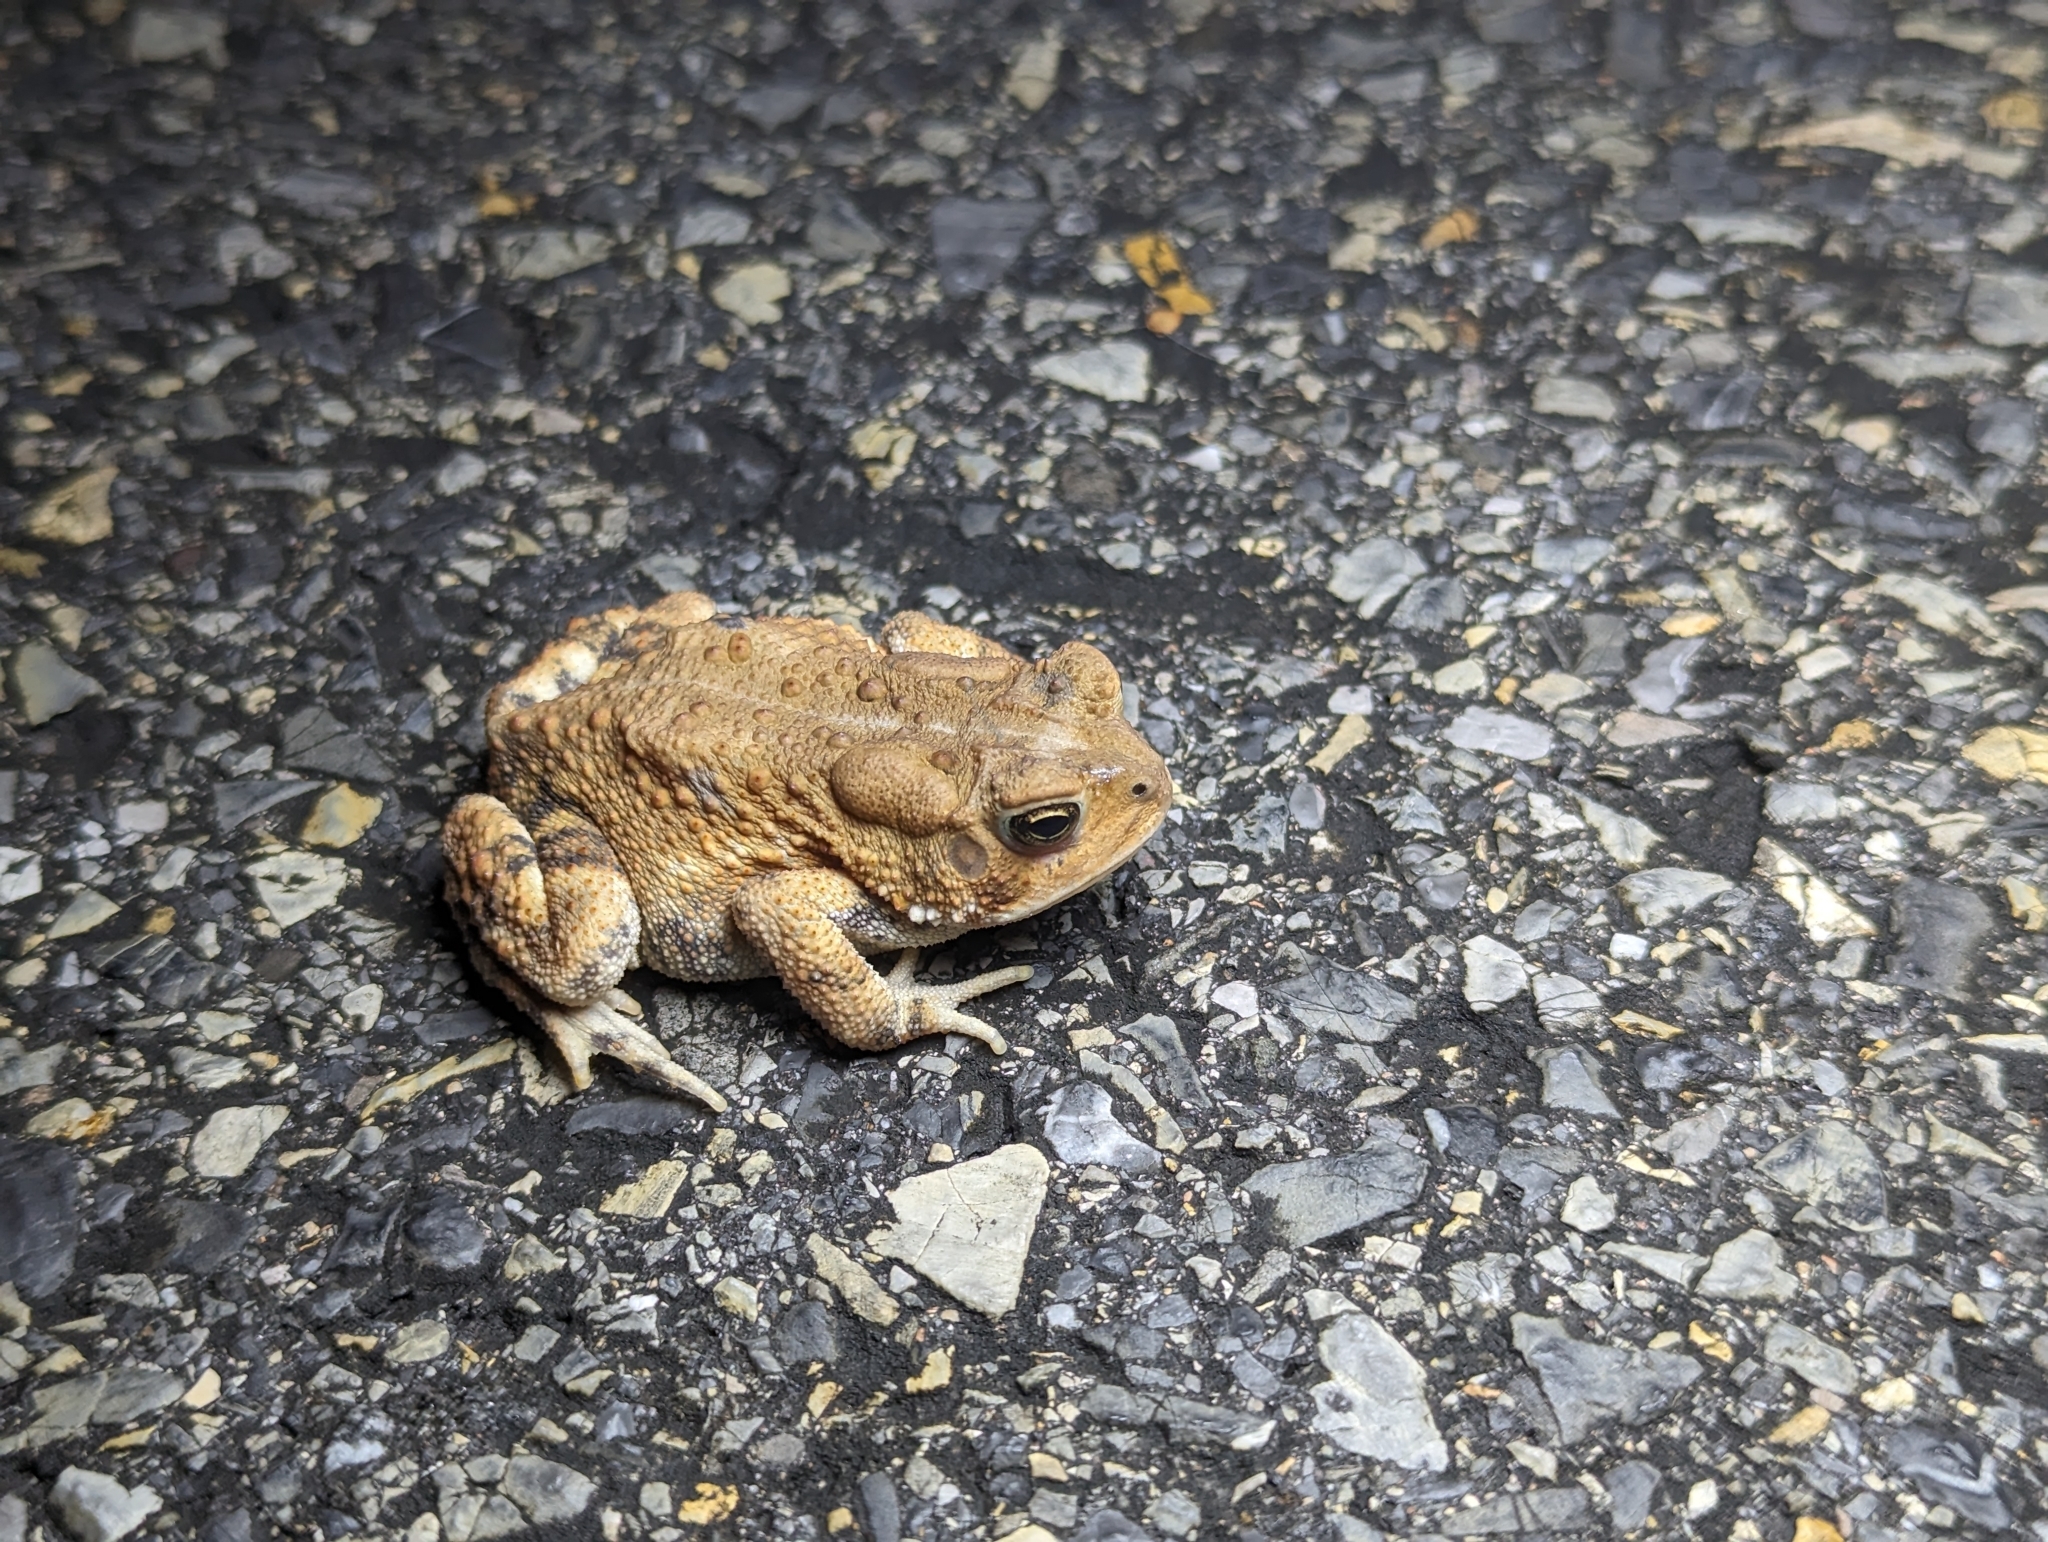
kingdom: Animalia
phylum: Chordata
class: Amphibia
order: Anura
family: Bufonidae
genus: Anaxyrus
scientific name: Anaxyrus americanus
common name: American toad
